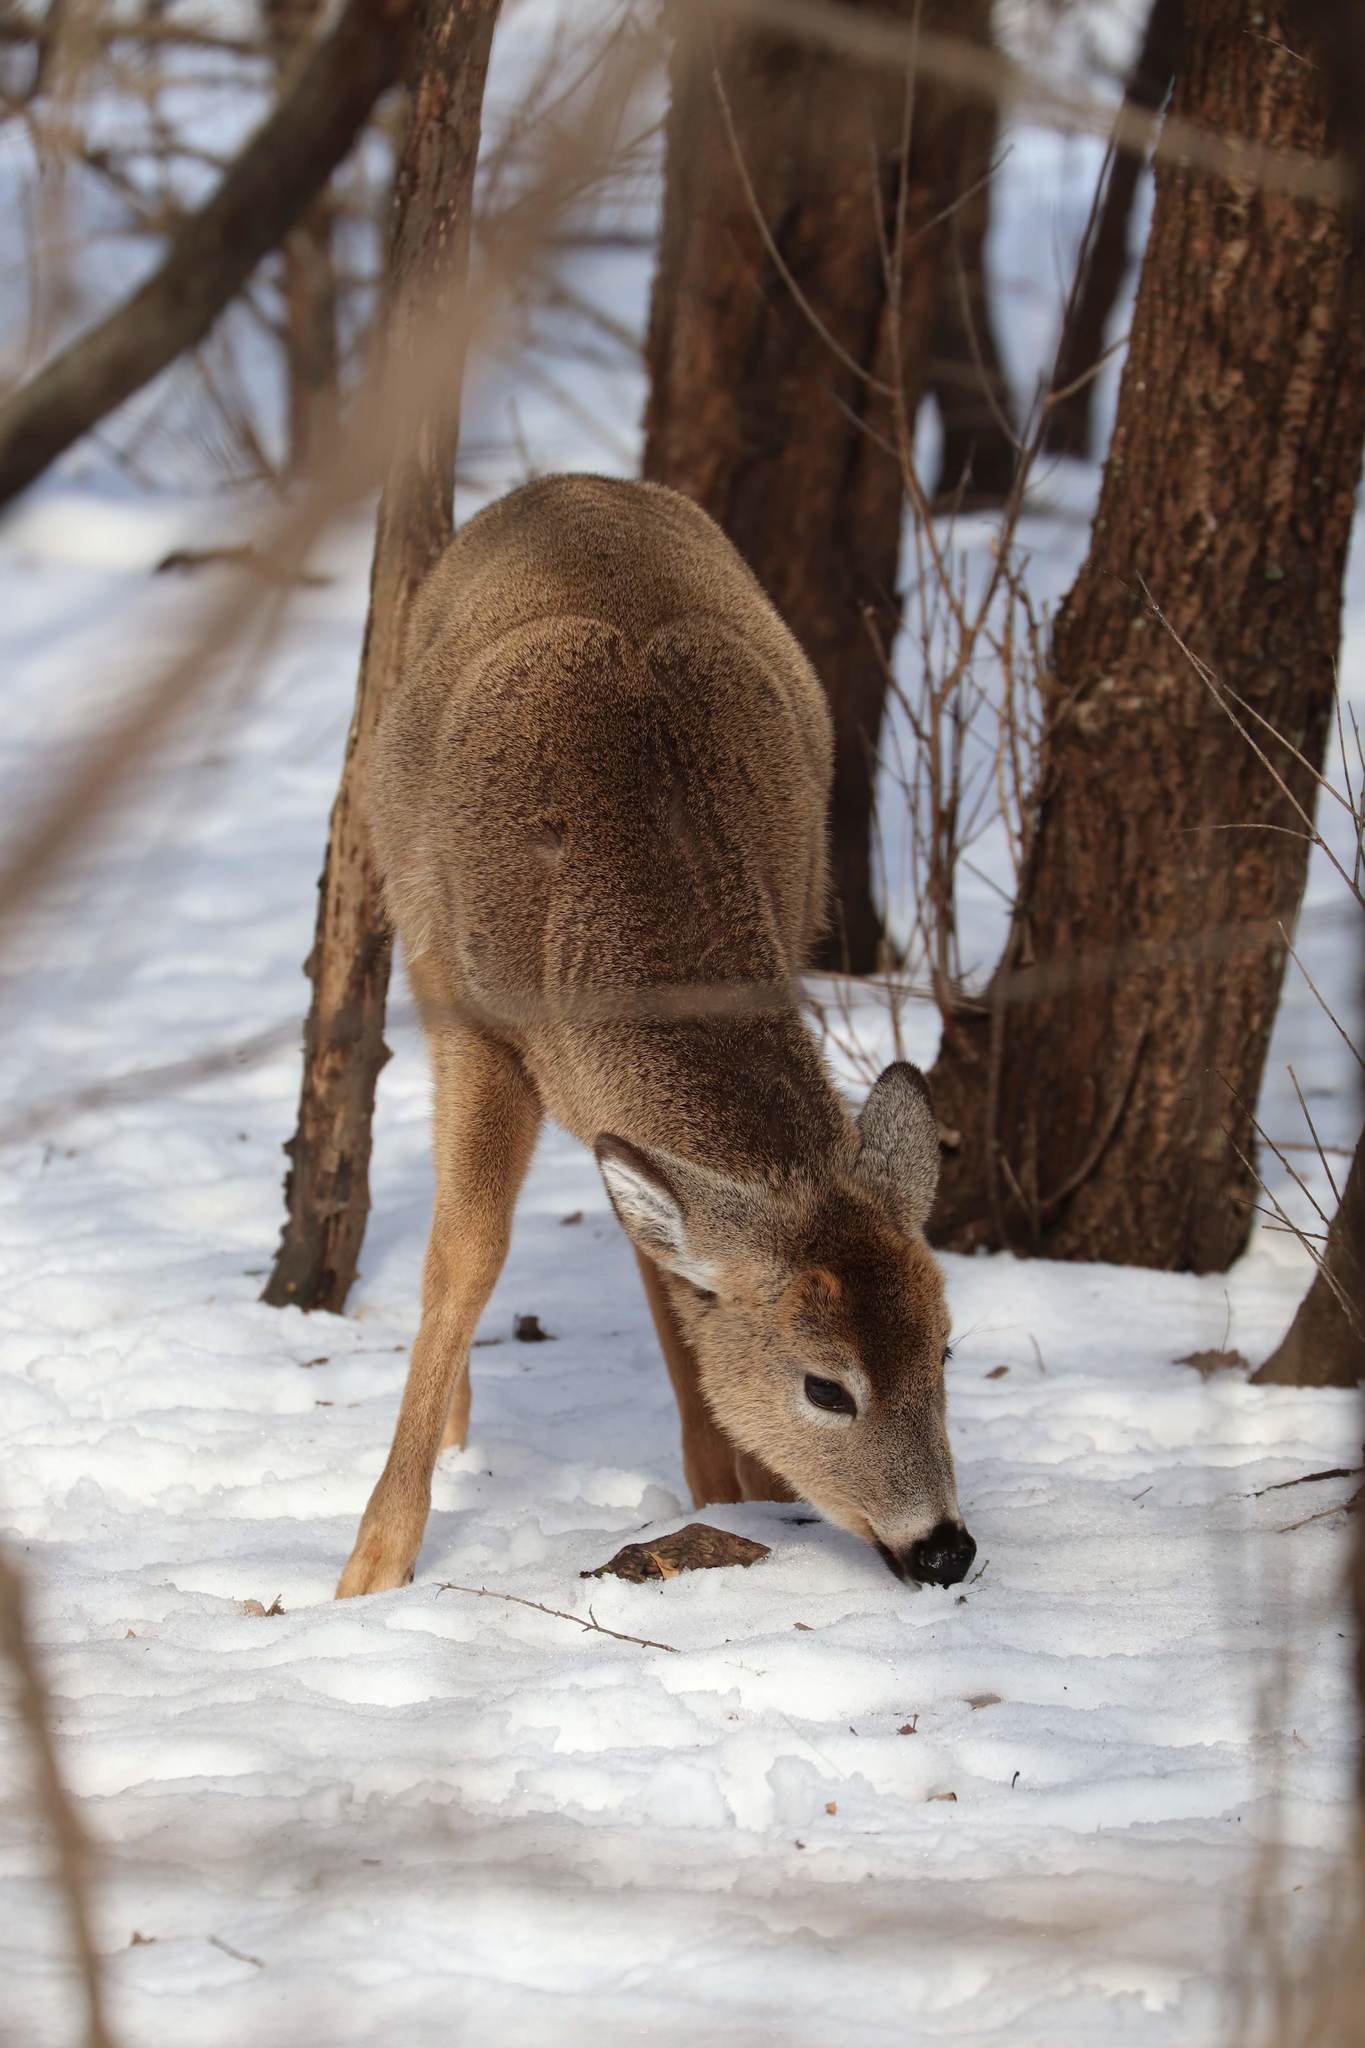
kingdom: Animalia
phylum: Chordata
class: Mammalia
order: Artiodactyla
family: Cervidae
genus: Odocoileus
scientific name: Odocoileus virginianus
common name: White-tailed deer
